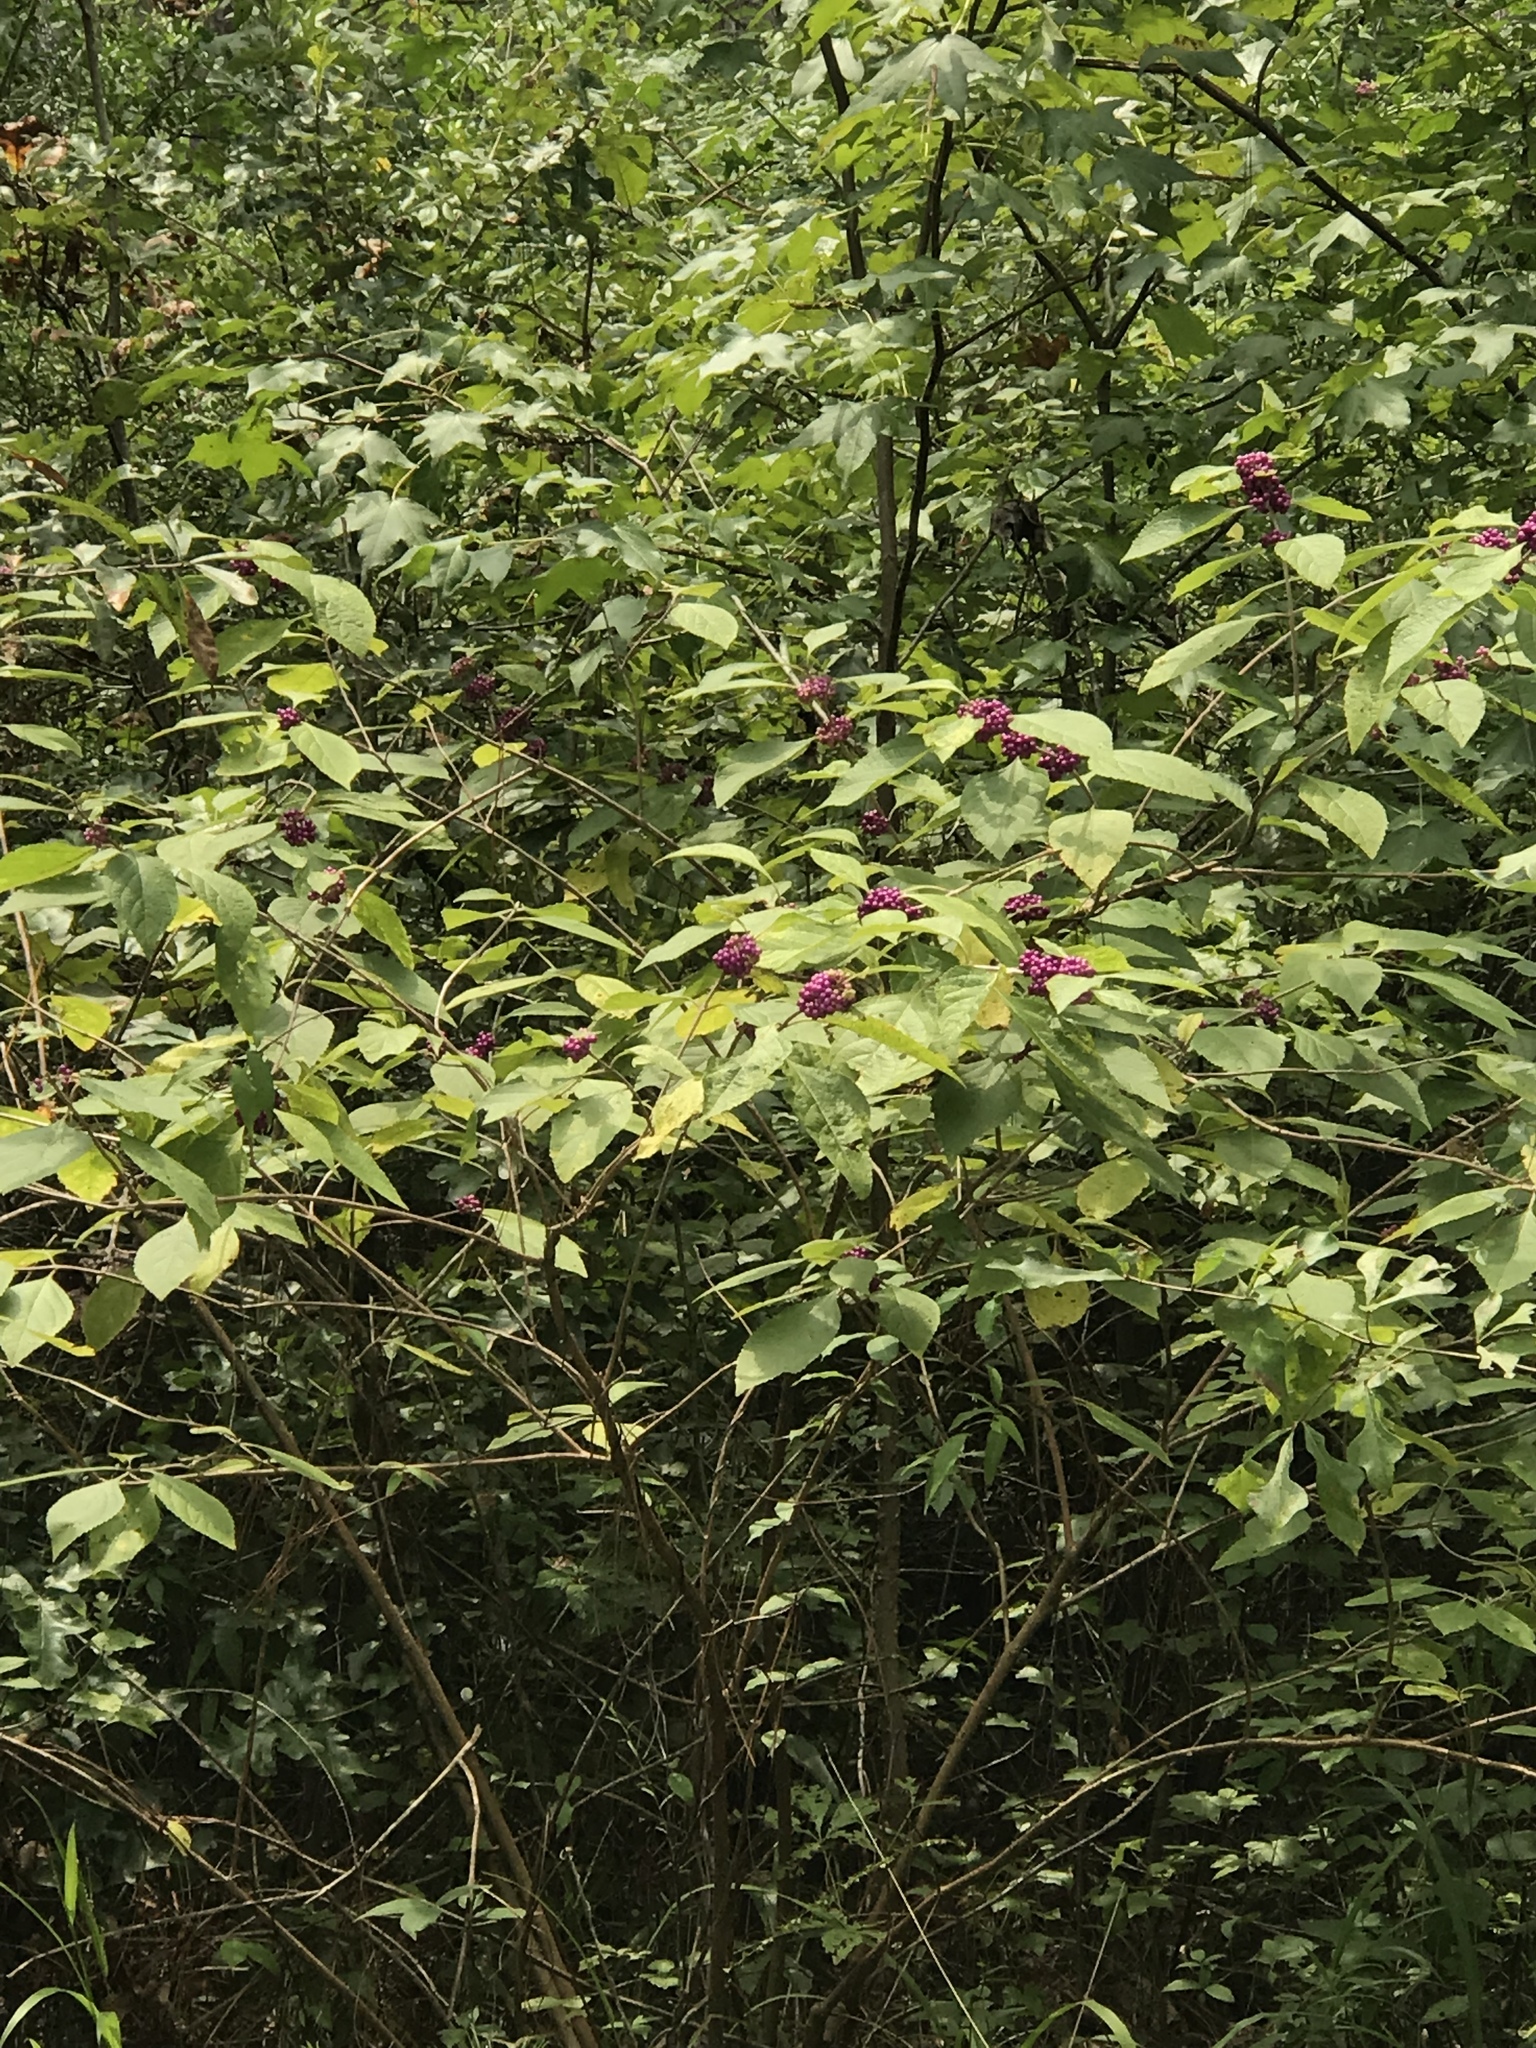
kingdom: Plantae
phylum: Tracheophyta
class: Magnoliopsida
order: Lamiales
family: Lamiaceae
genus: Callicarpa
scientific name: Callicarpa americana
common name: American beautyberry
